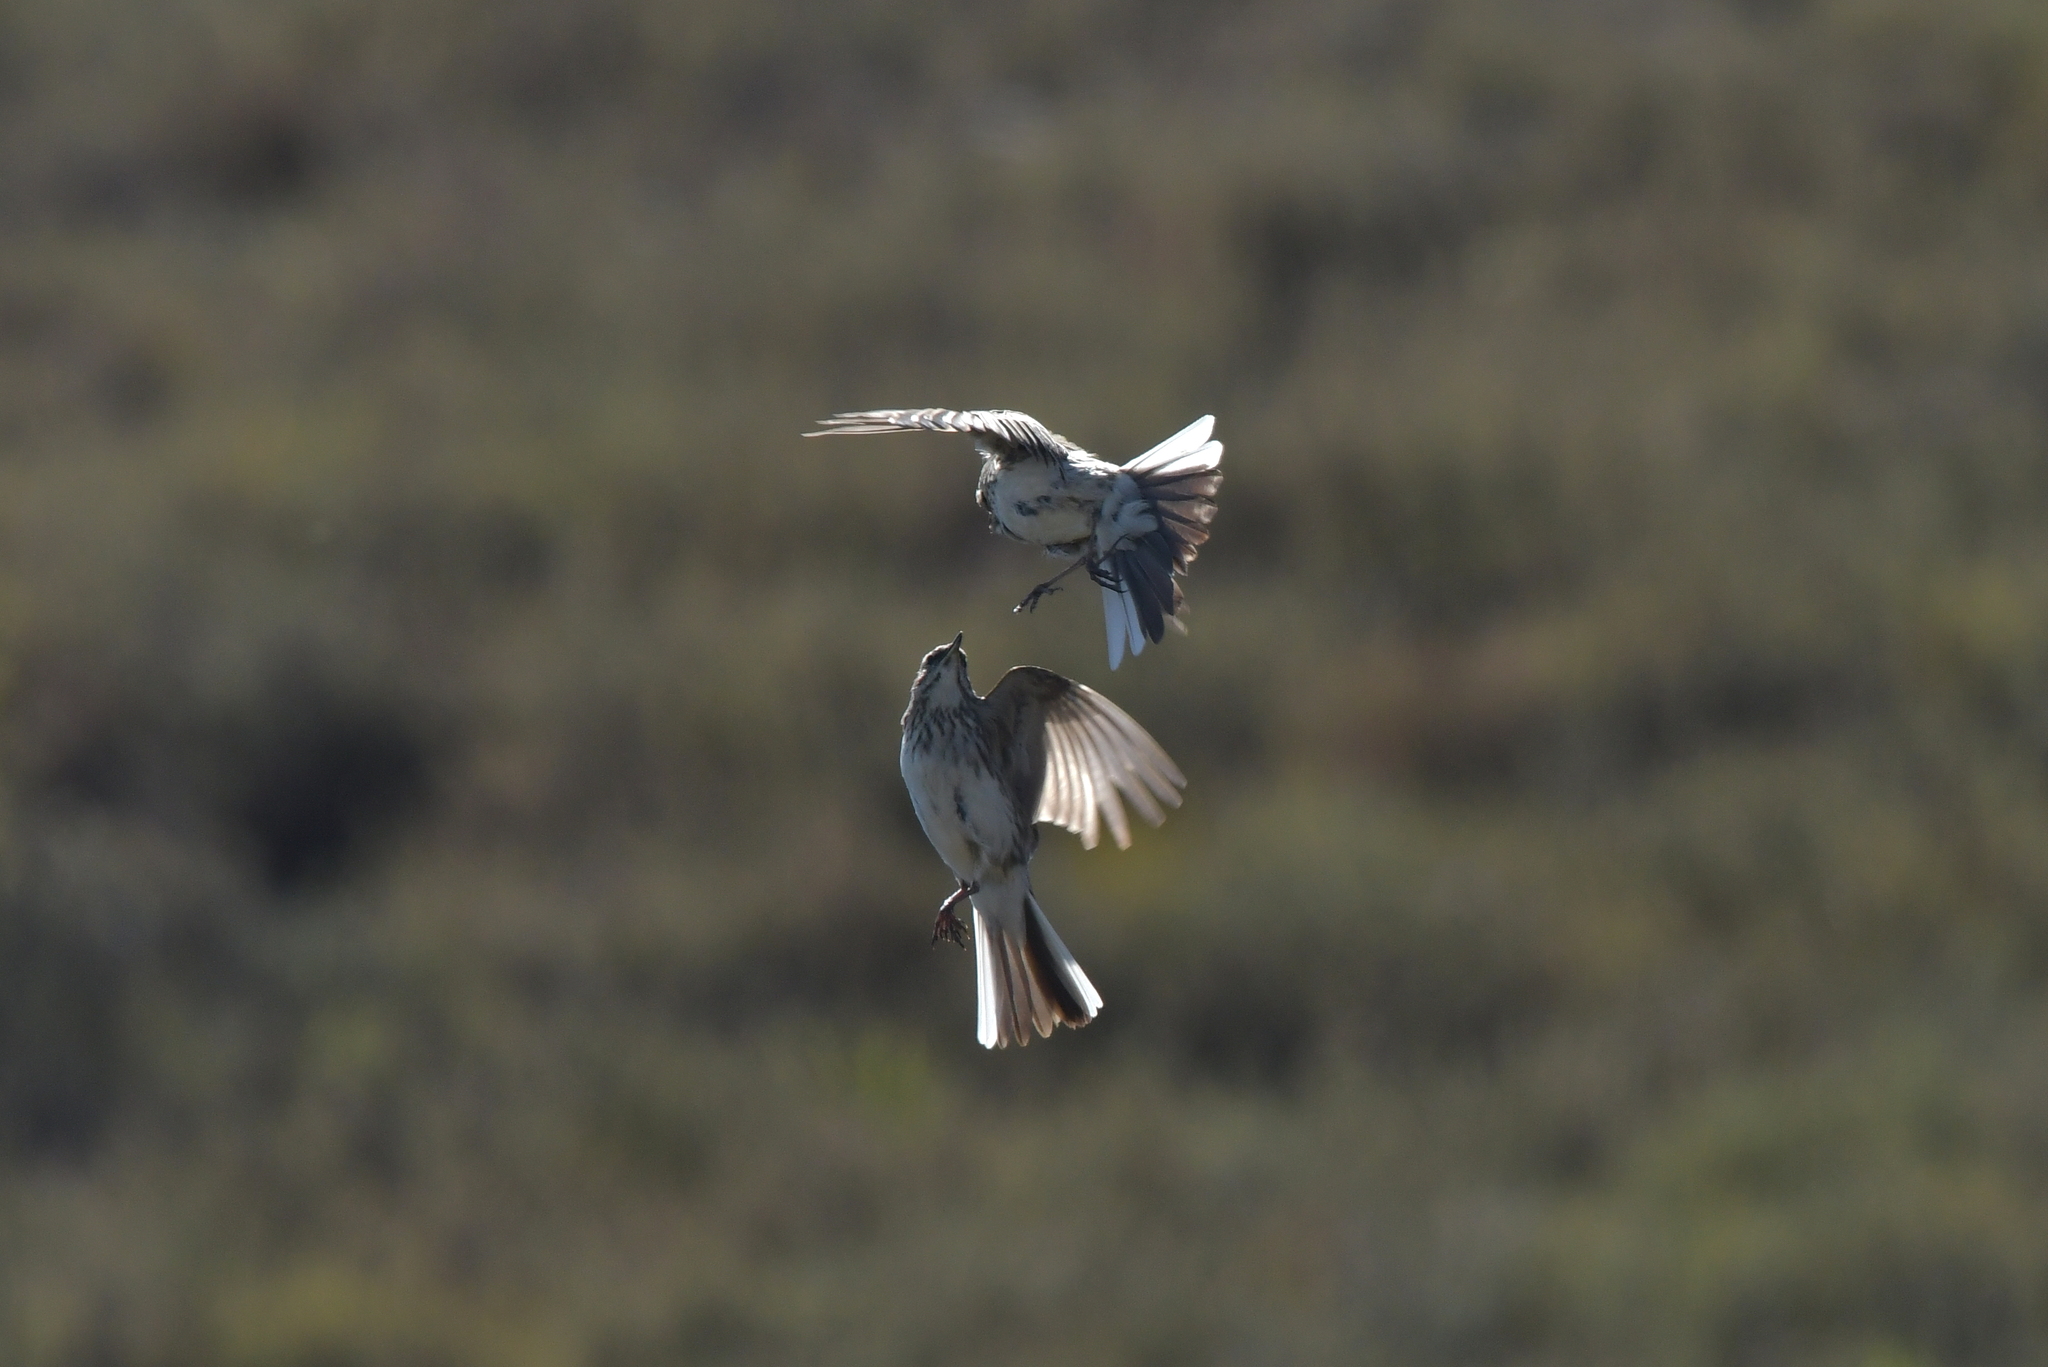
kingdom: Animalia
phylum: Chordata
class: Aves
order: Passeriformes
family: Motacillidae
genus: Anthus
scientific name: Anthus novaeseelandiae
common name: New zealand pipit
